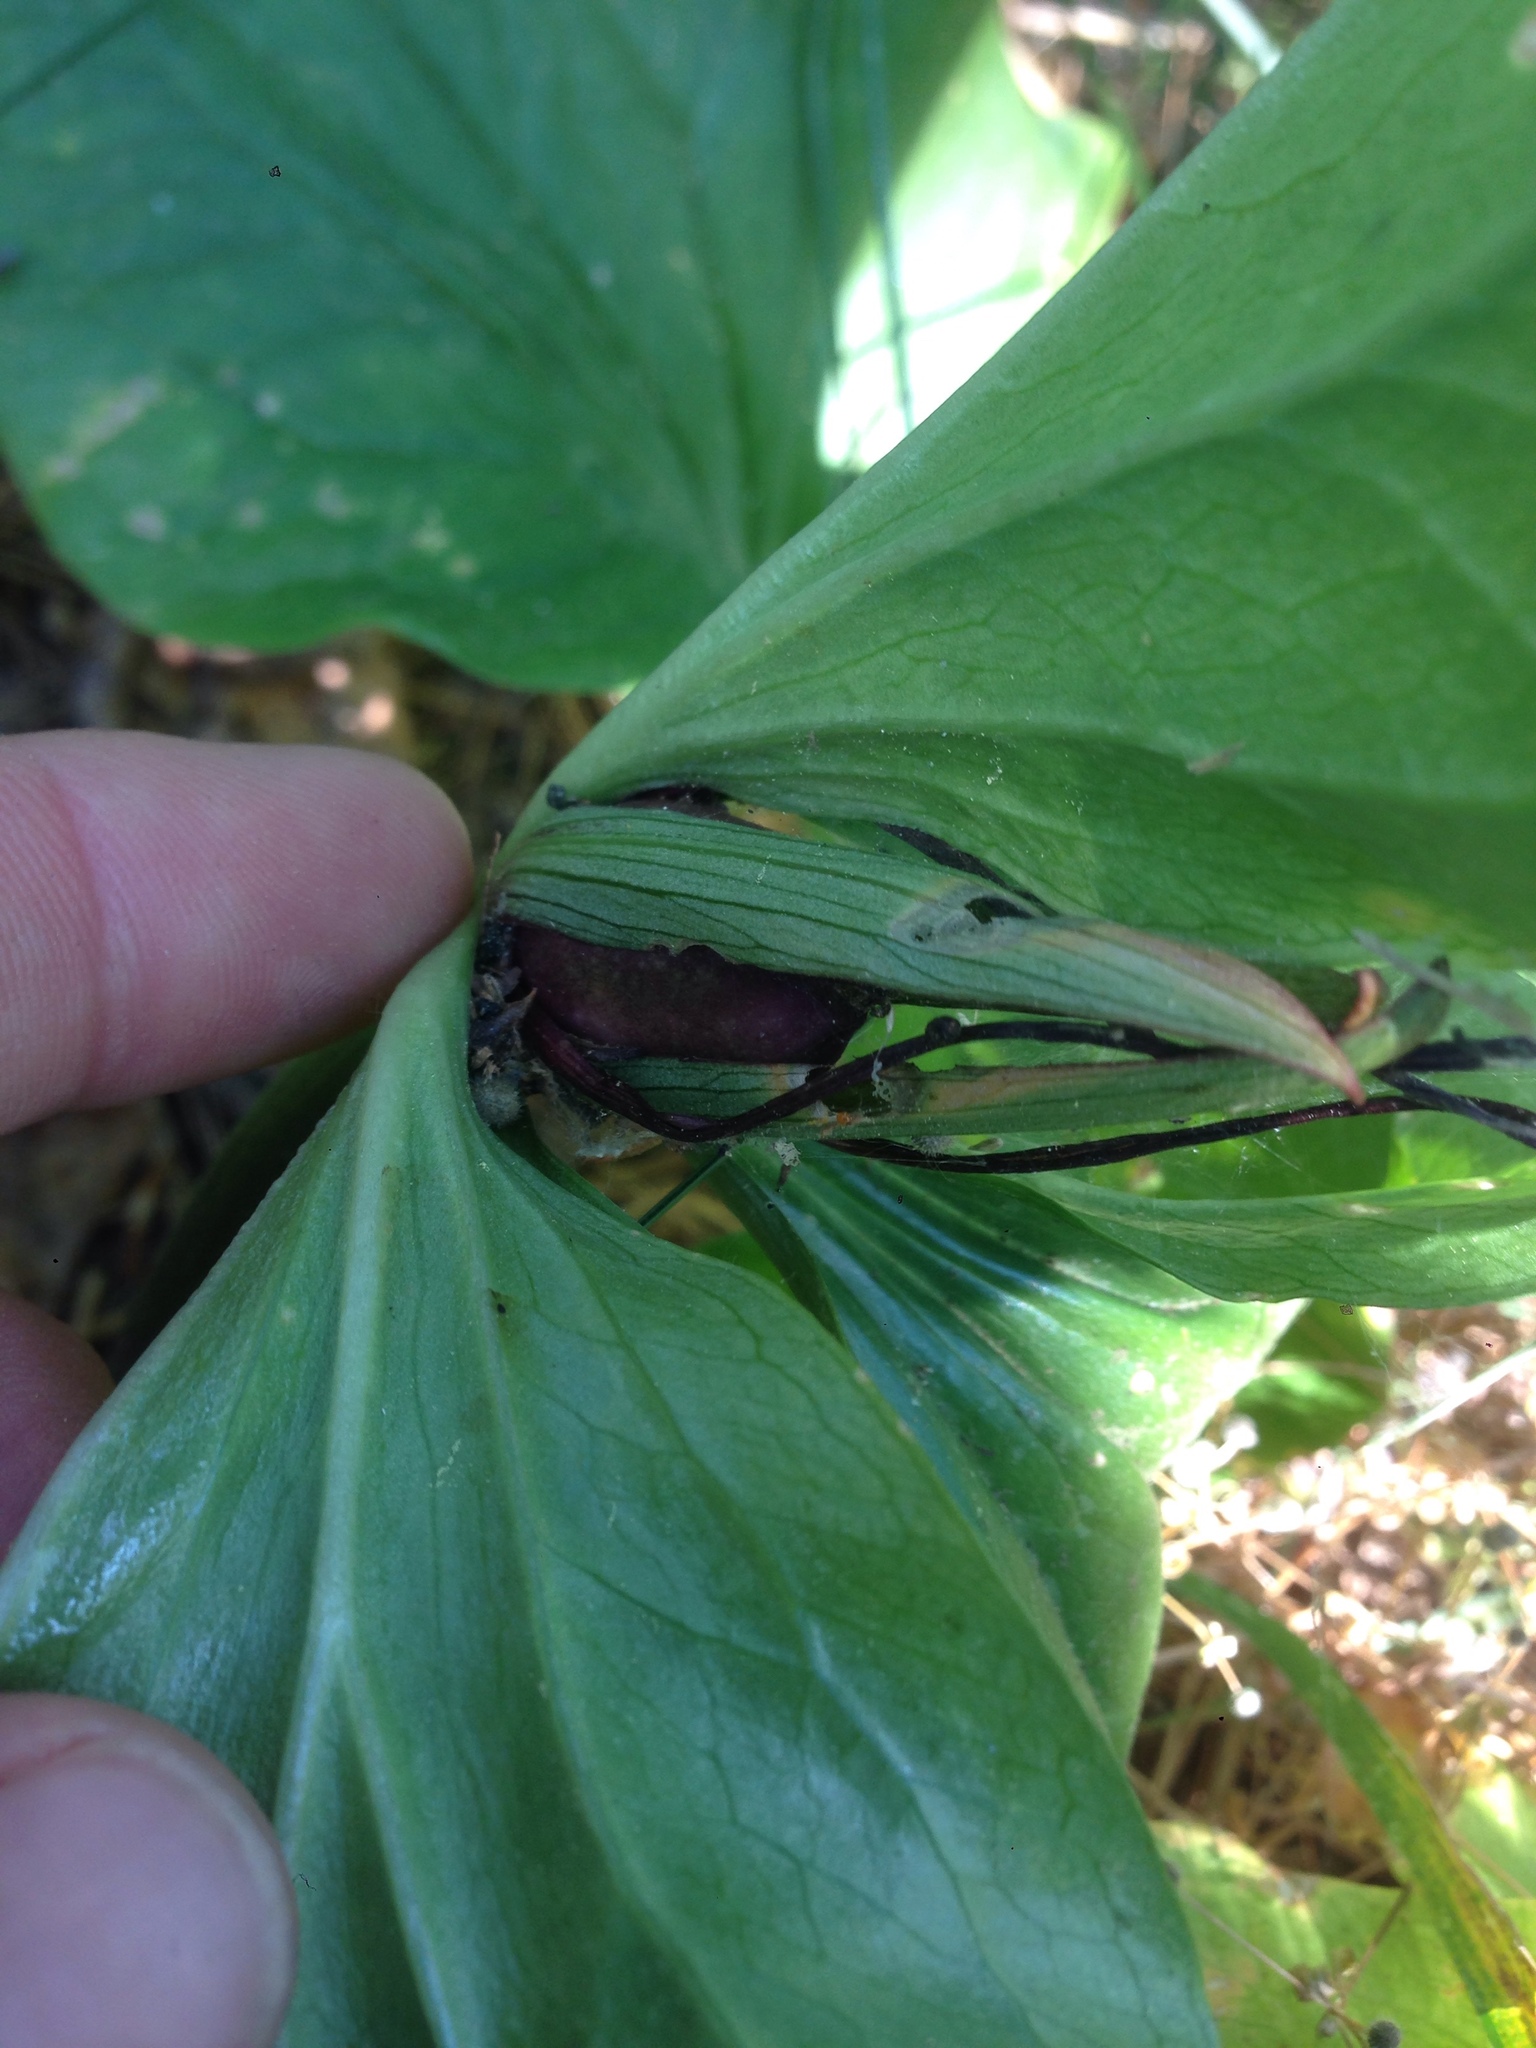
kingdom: Plantae
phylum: Tracheophyta
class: Liliopsida
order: Liliales
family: Melanthiaceae
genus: Trillium
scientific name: Trillium angustipetalum
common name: Narrow-petaled trillium
